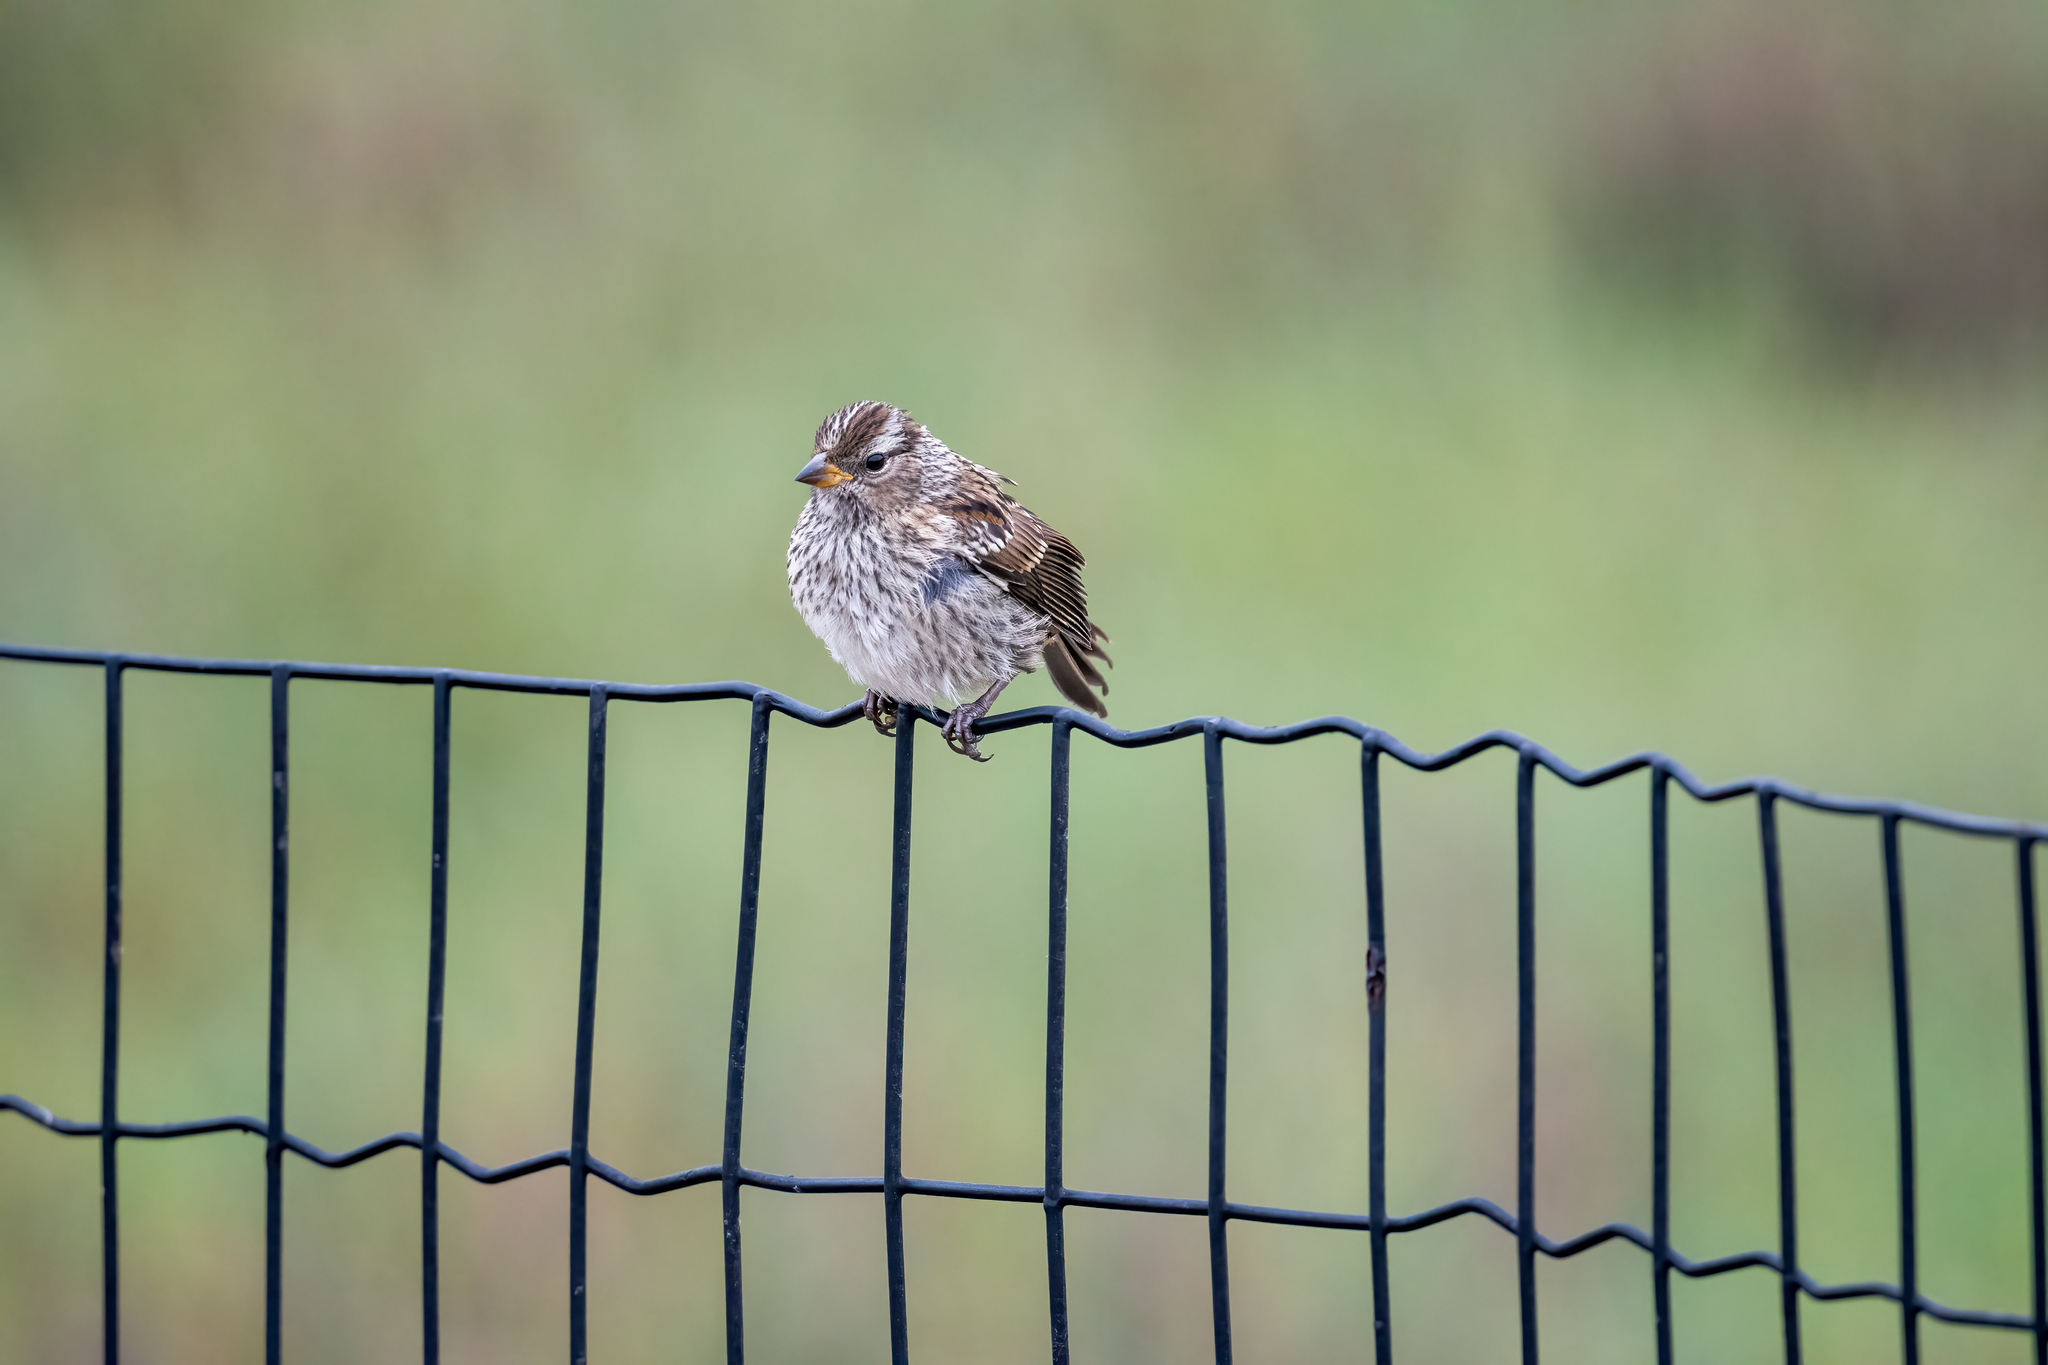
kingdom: Animalia
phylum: Chordata
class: Aves
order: Passeriformes
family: Passerellidae
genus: Zonotrichia
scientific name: Zonotrichia leucophrys
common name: White-crowned sparrow
